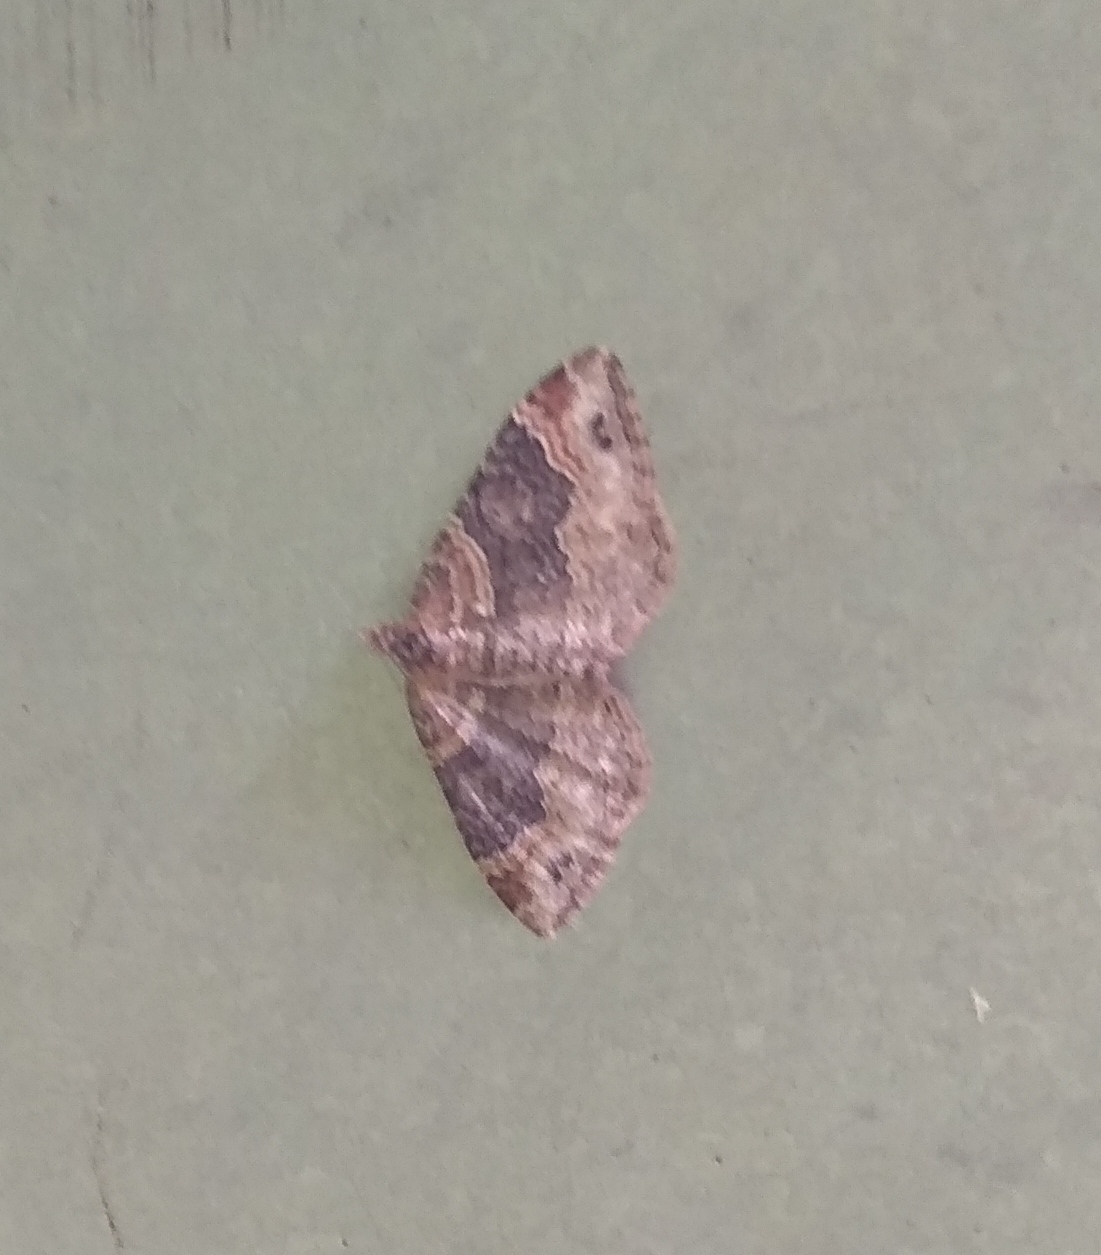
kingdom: Animalia
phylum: Arthropoda
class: Insecta
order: Lepidoptera
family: Geometridae
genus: Xanthorhoe
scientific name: Xanthorhoe ferrugata
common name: Dark-barred twin-spot carpet
